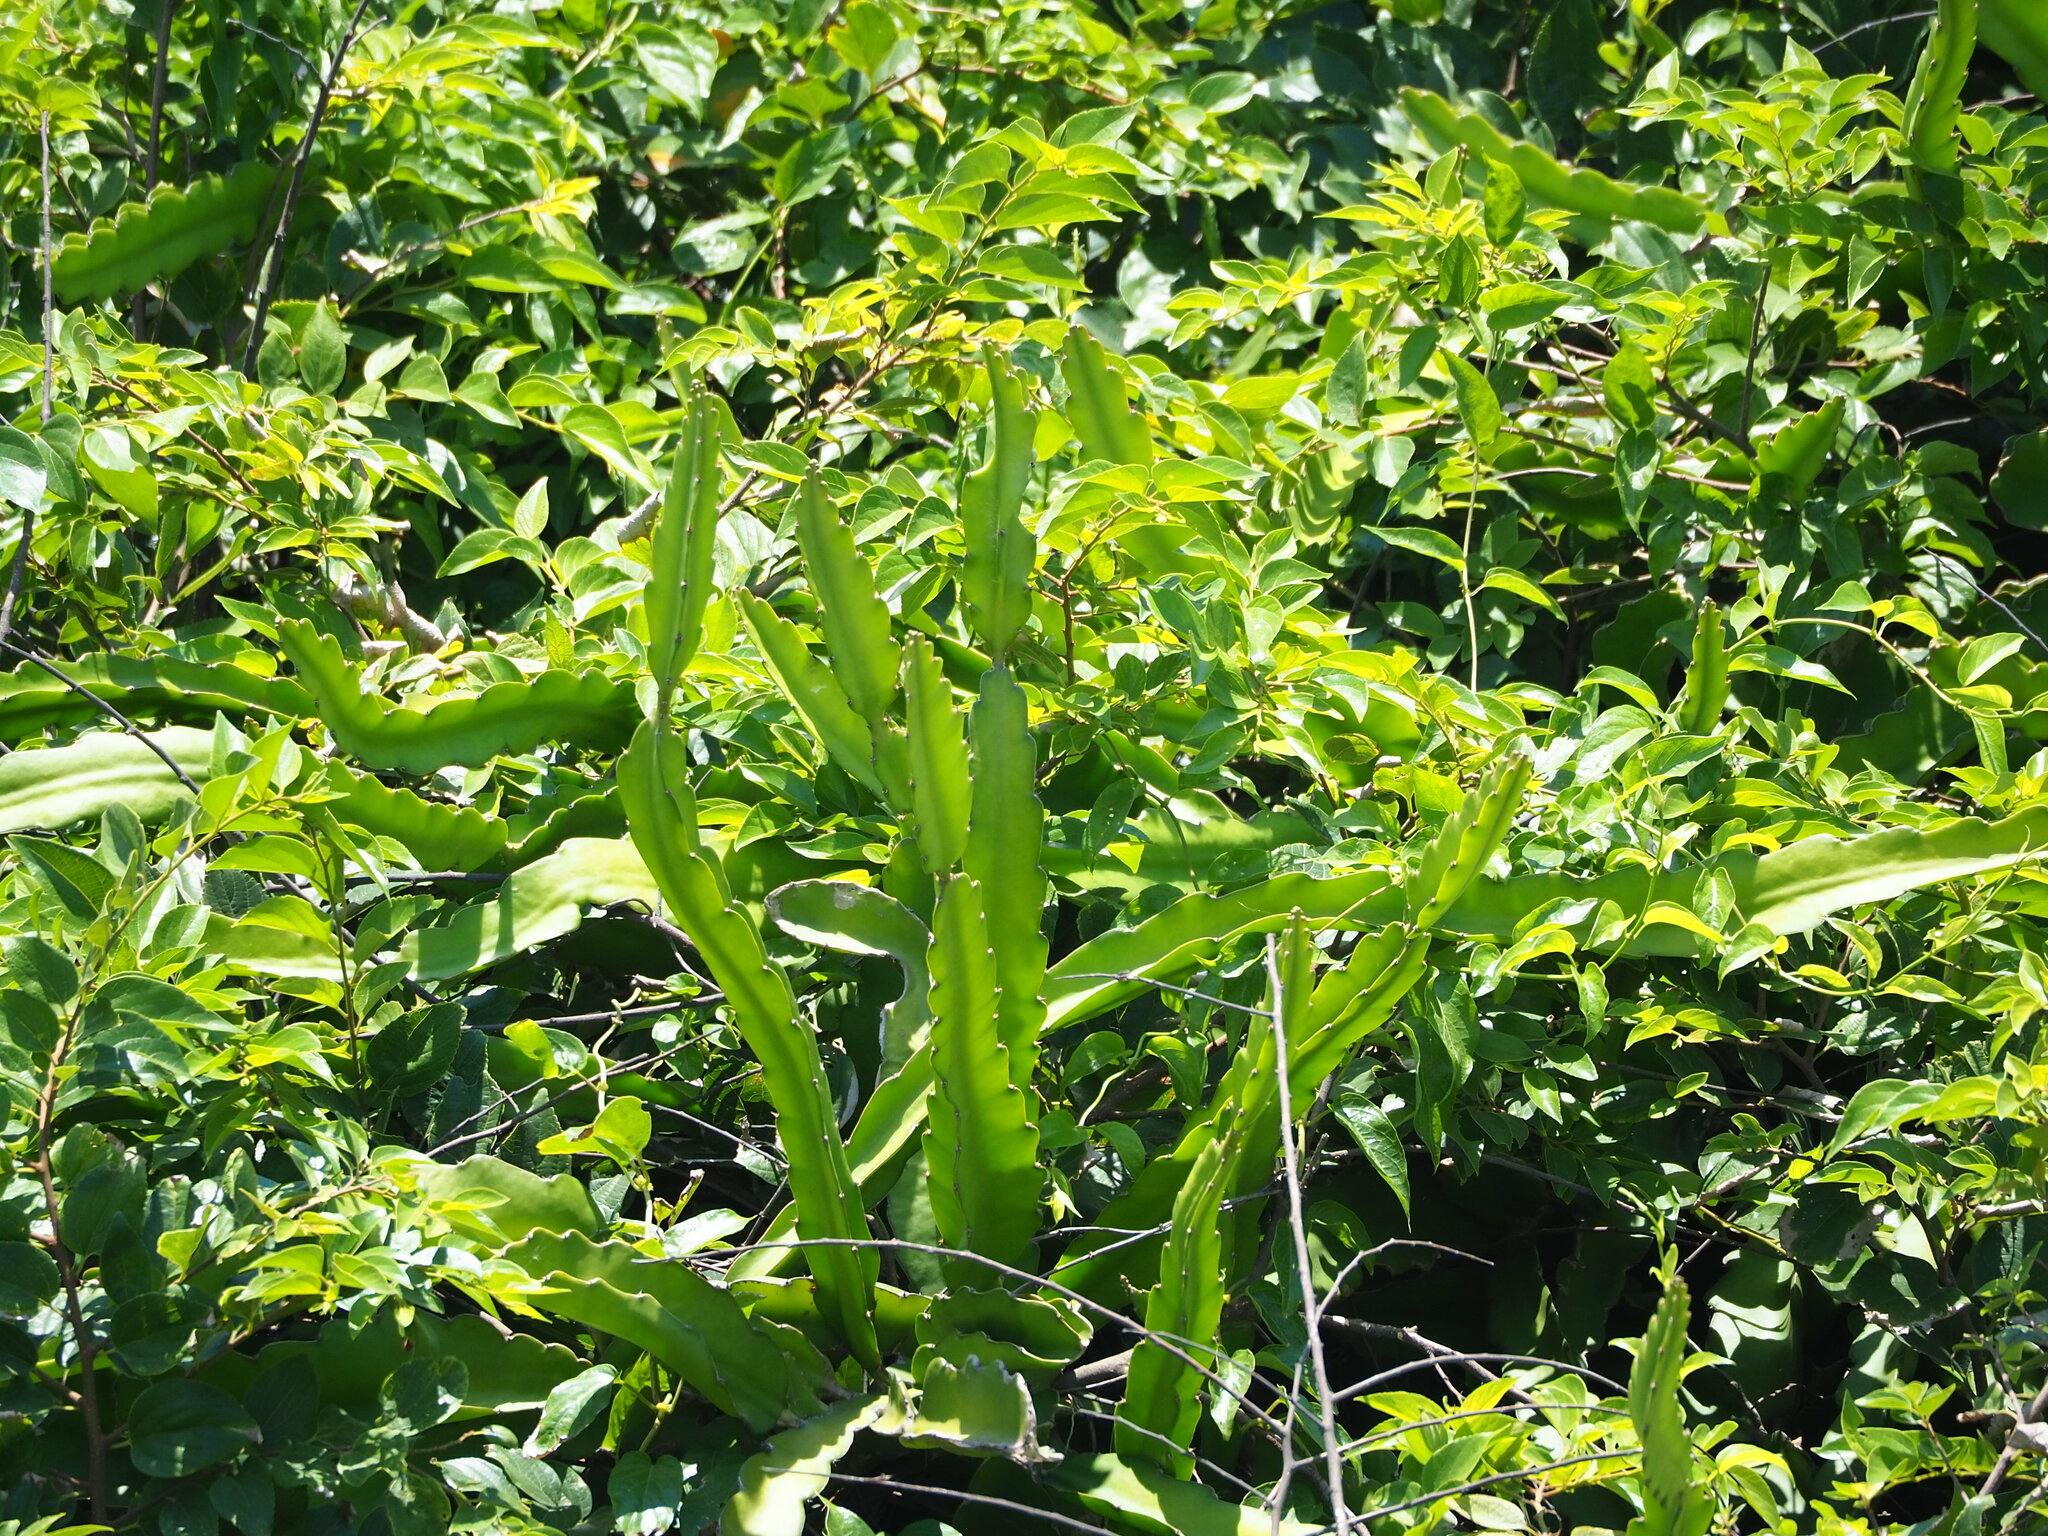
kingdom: Plantae
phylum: Tracheophyta
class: Magnoliopsida
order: Caryophyllales
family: Cactaceae
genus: Selenicereus
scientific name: Selenicereus undatus
